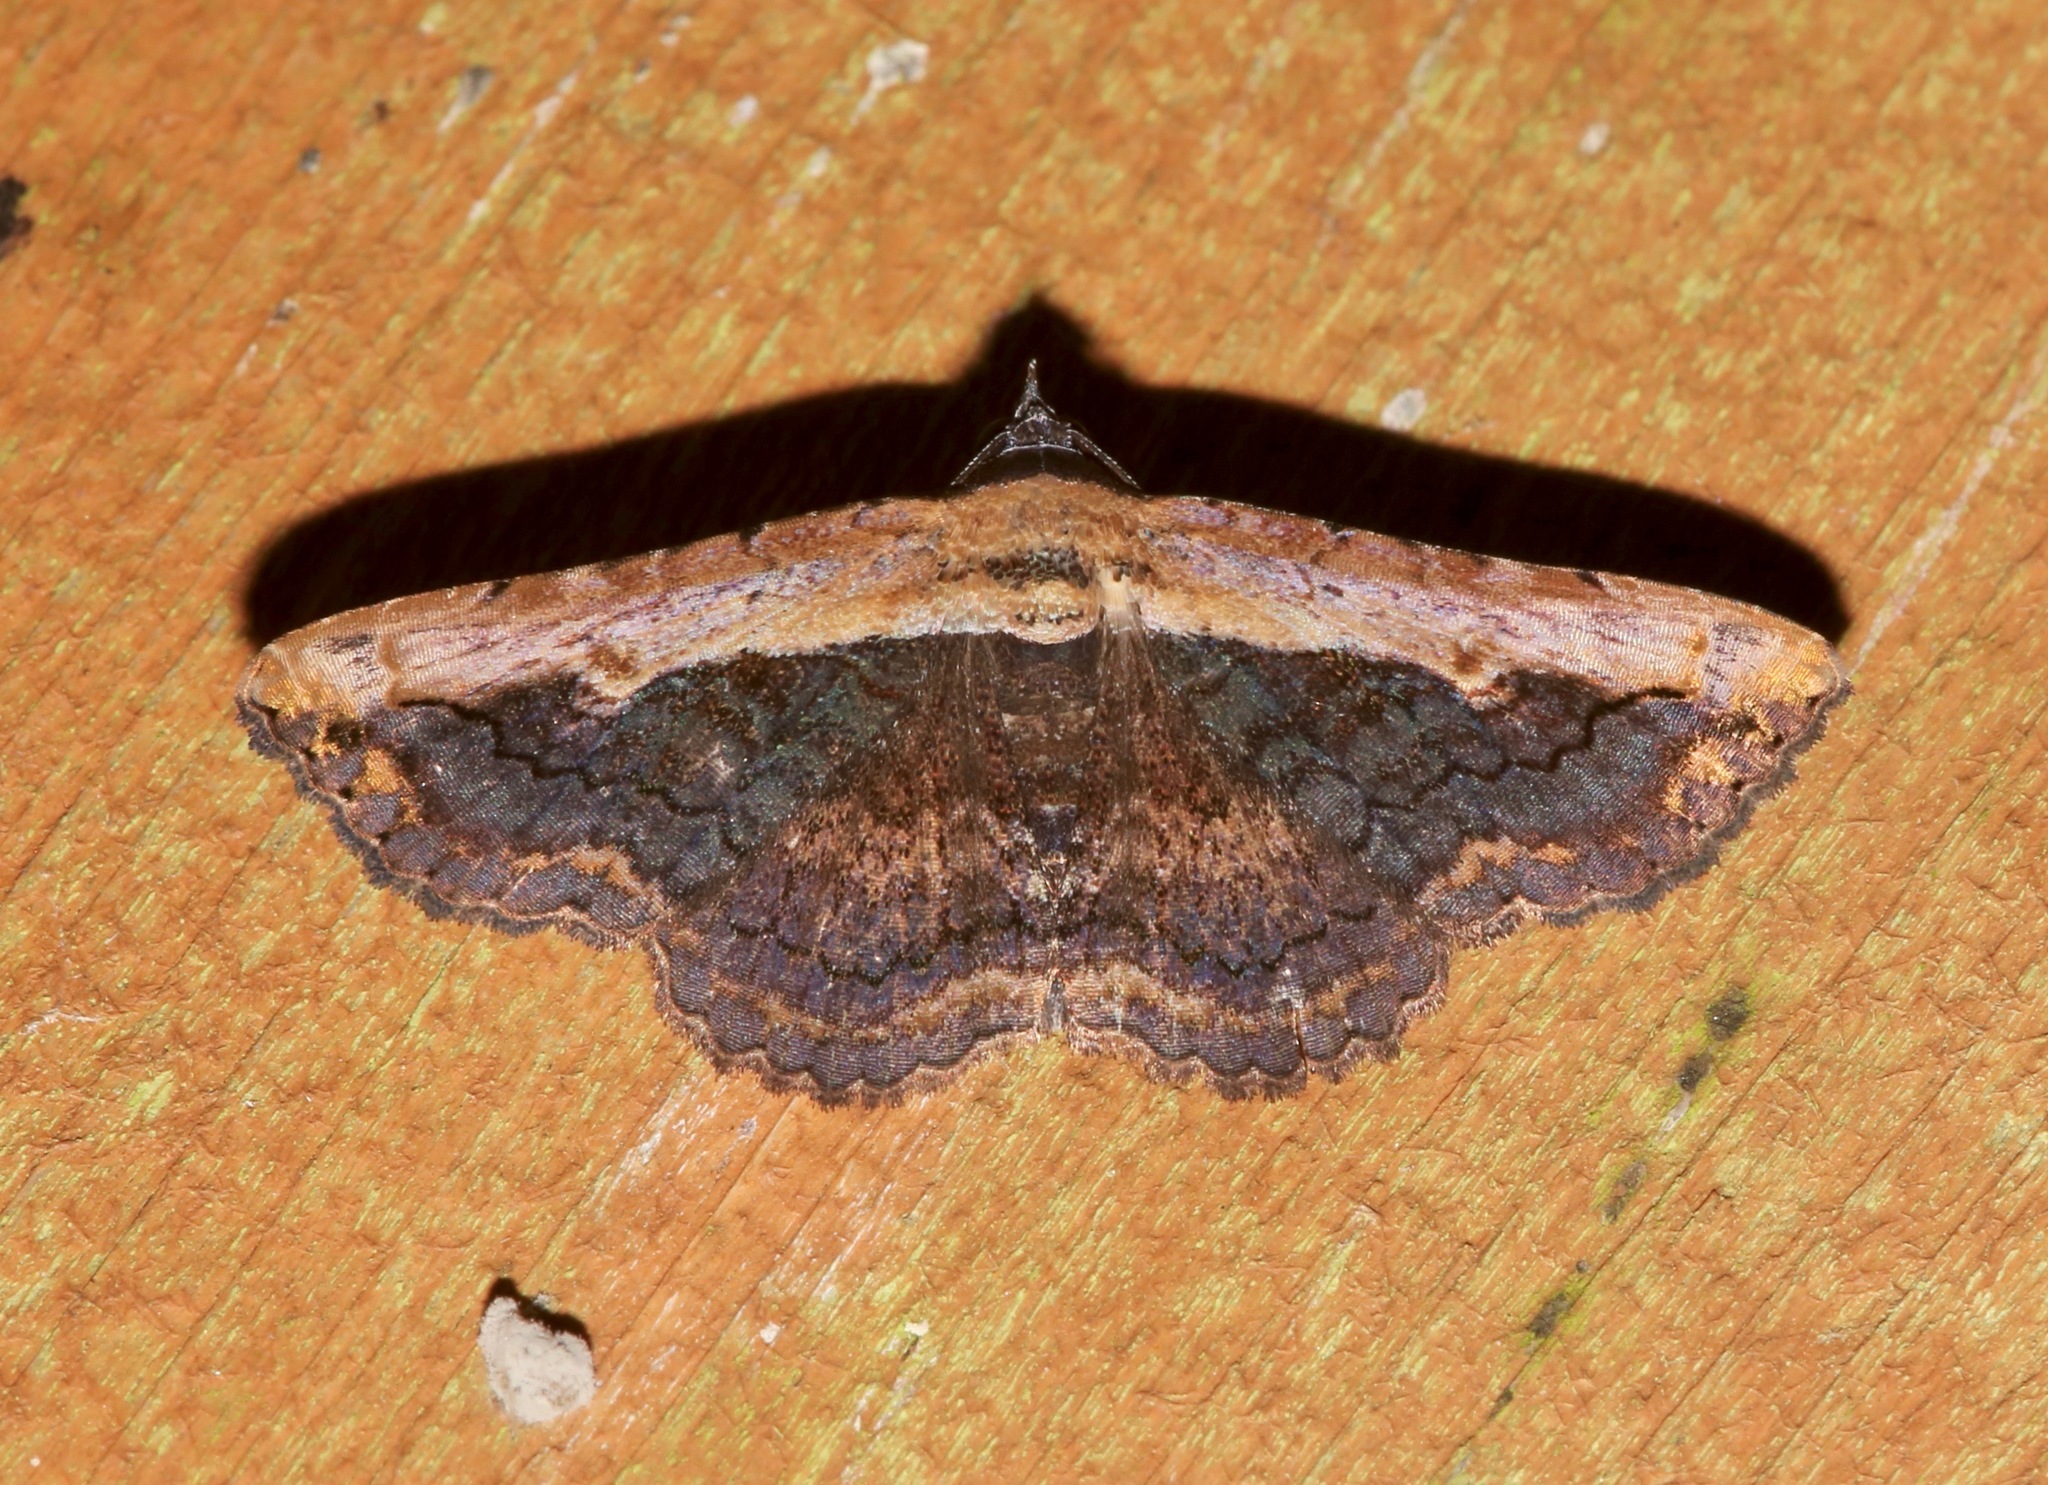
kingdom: Animalia
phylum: Arthropoda
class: Insecta
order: Lepidoptera
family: Erebidae
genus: Selenisa
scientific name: Selenisa sueroides
